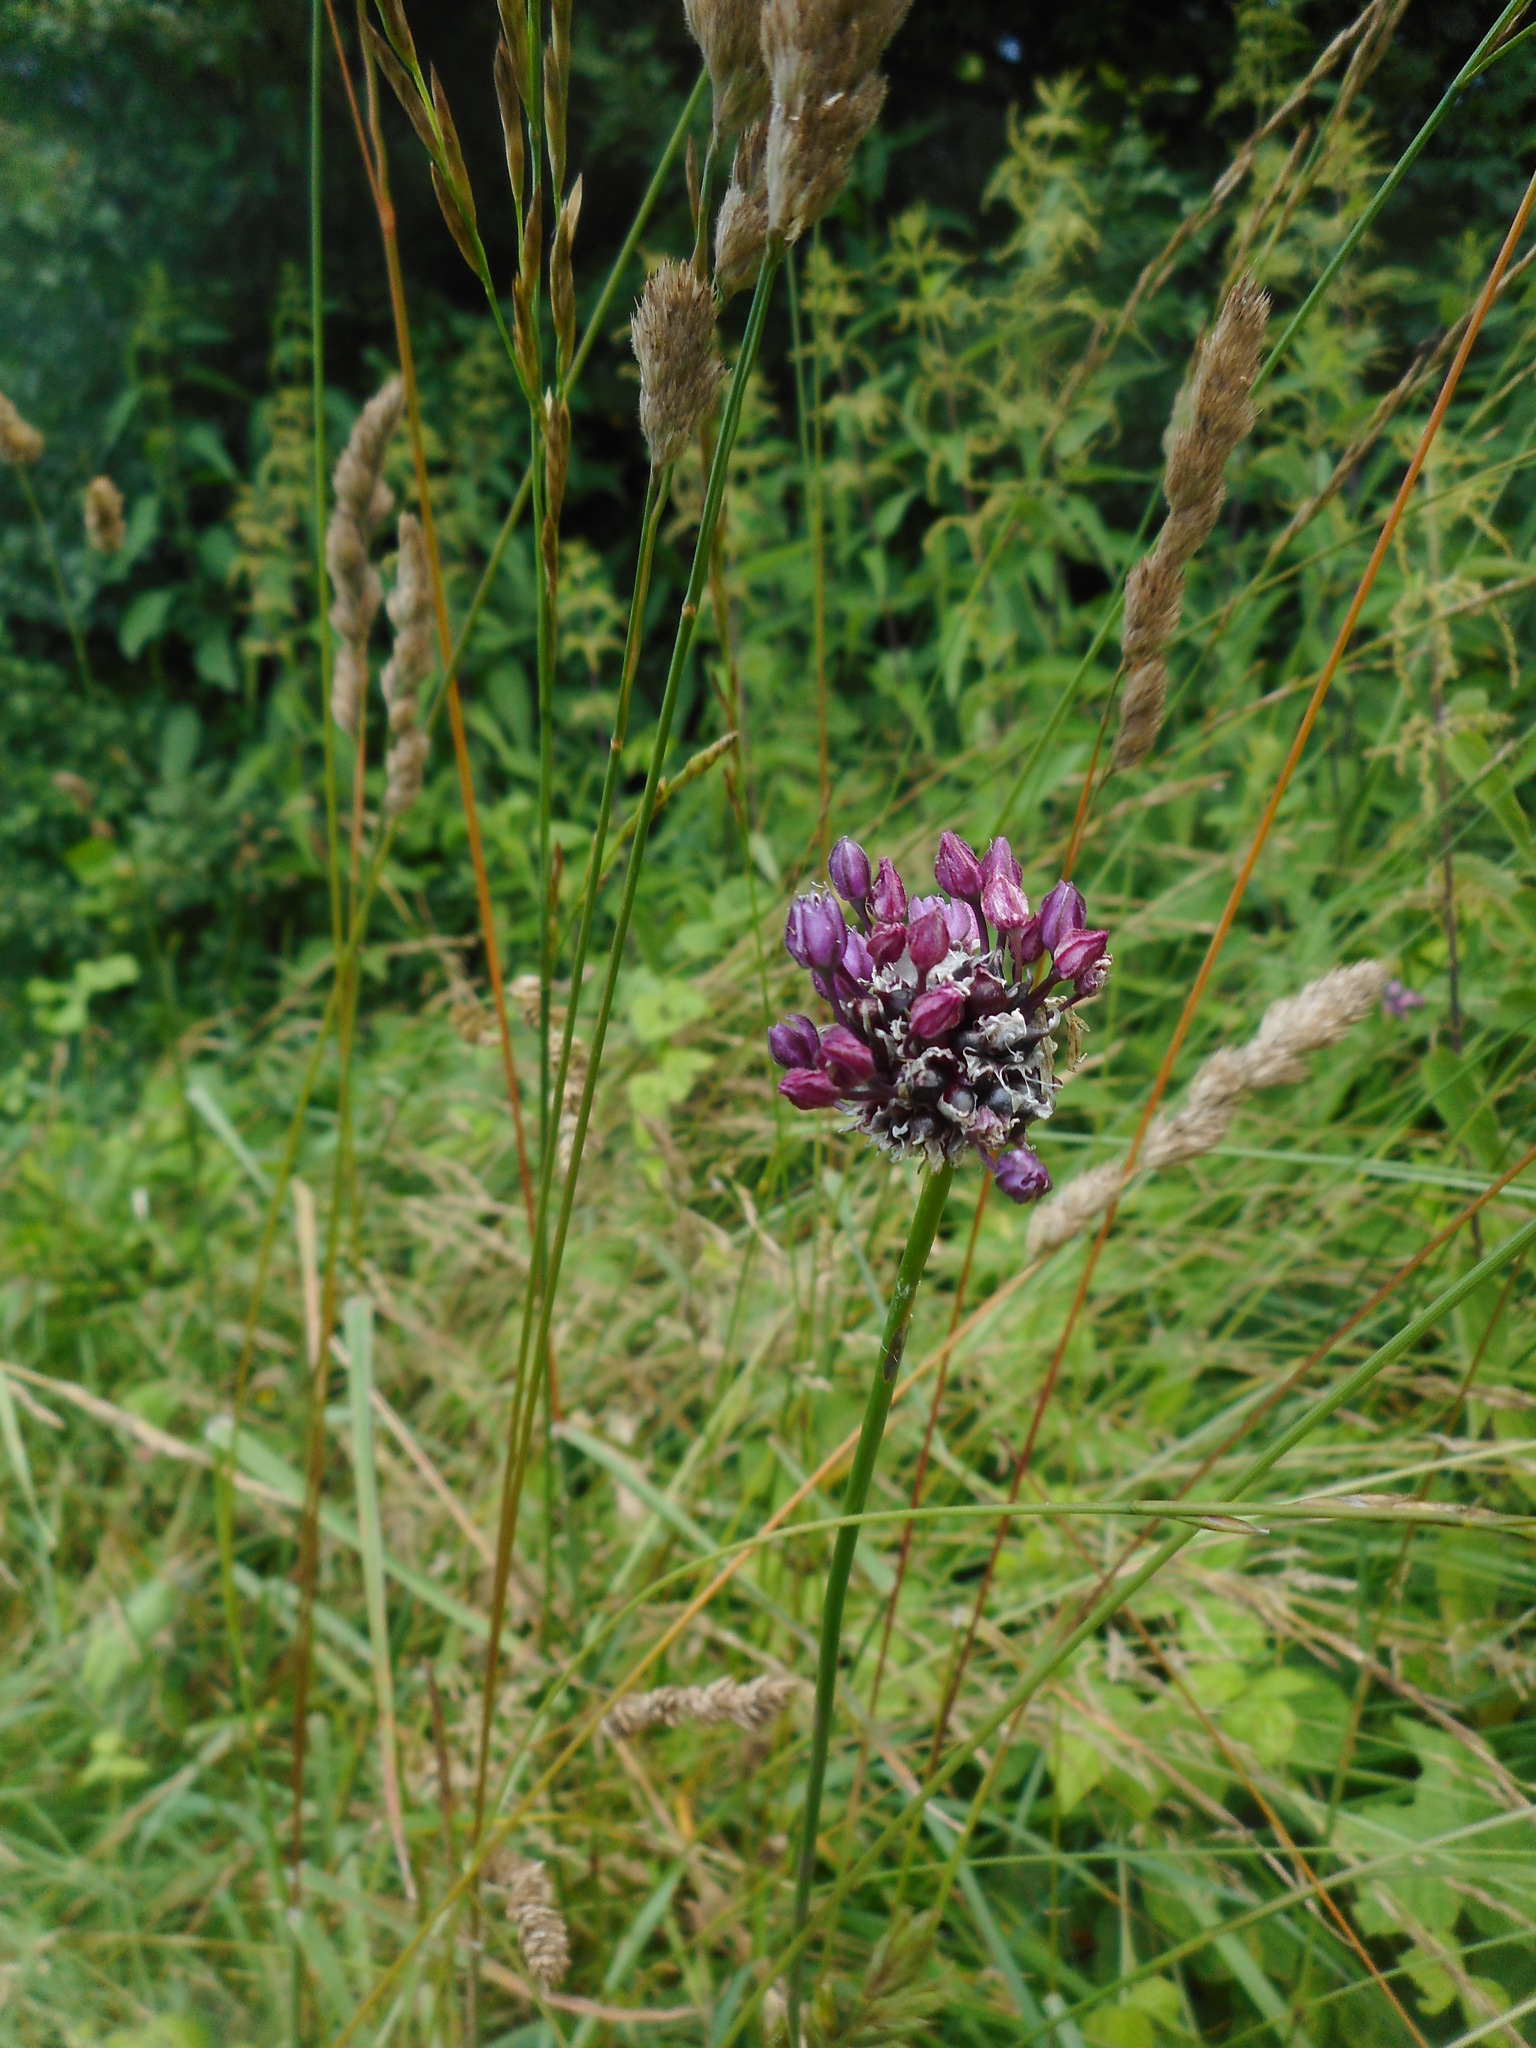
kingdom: Plantae
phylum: Tracheophyta
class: Liliopsida
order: Asparagales
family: Amaryllidaceae
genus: Allium
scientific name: Allium scorodoprasum
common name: Sand leek
